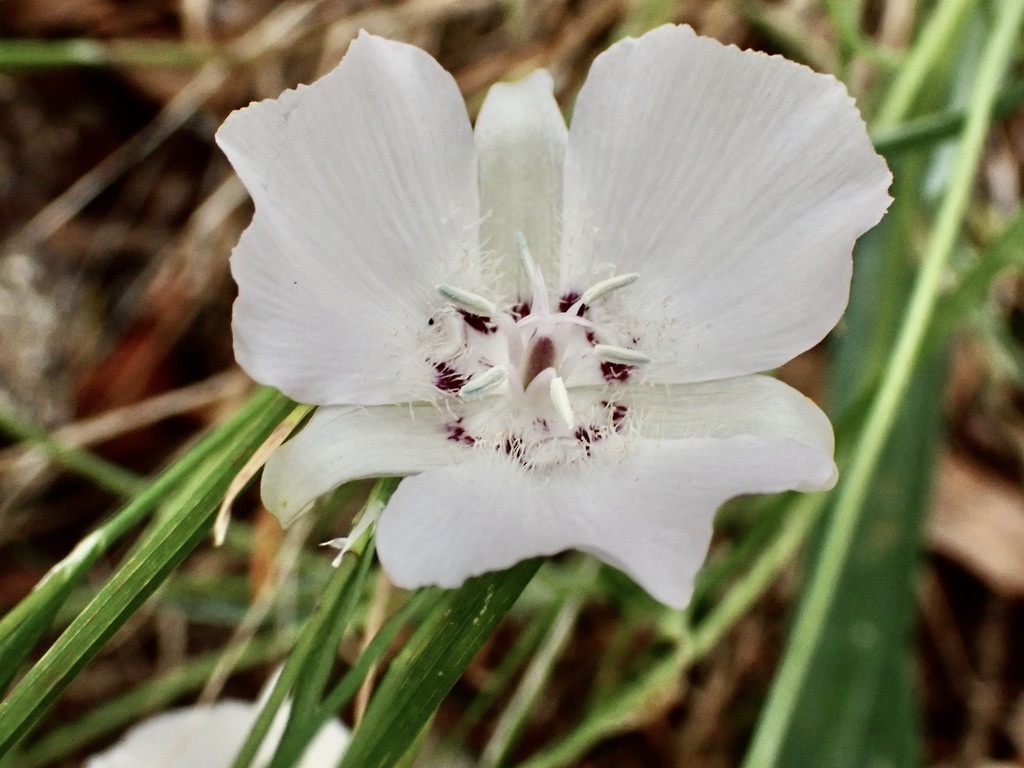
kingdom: Plantae
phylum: Tracheophyta
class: Liliopsida
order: Liliales
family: Liliaceae
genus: Calochortus
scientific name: Calochortus umbellatus
